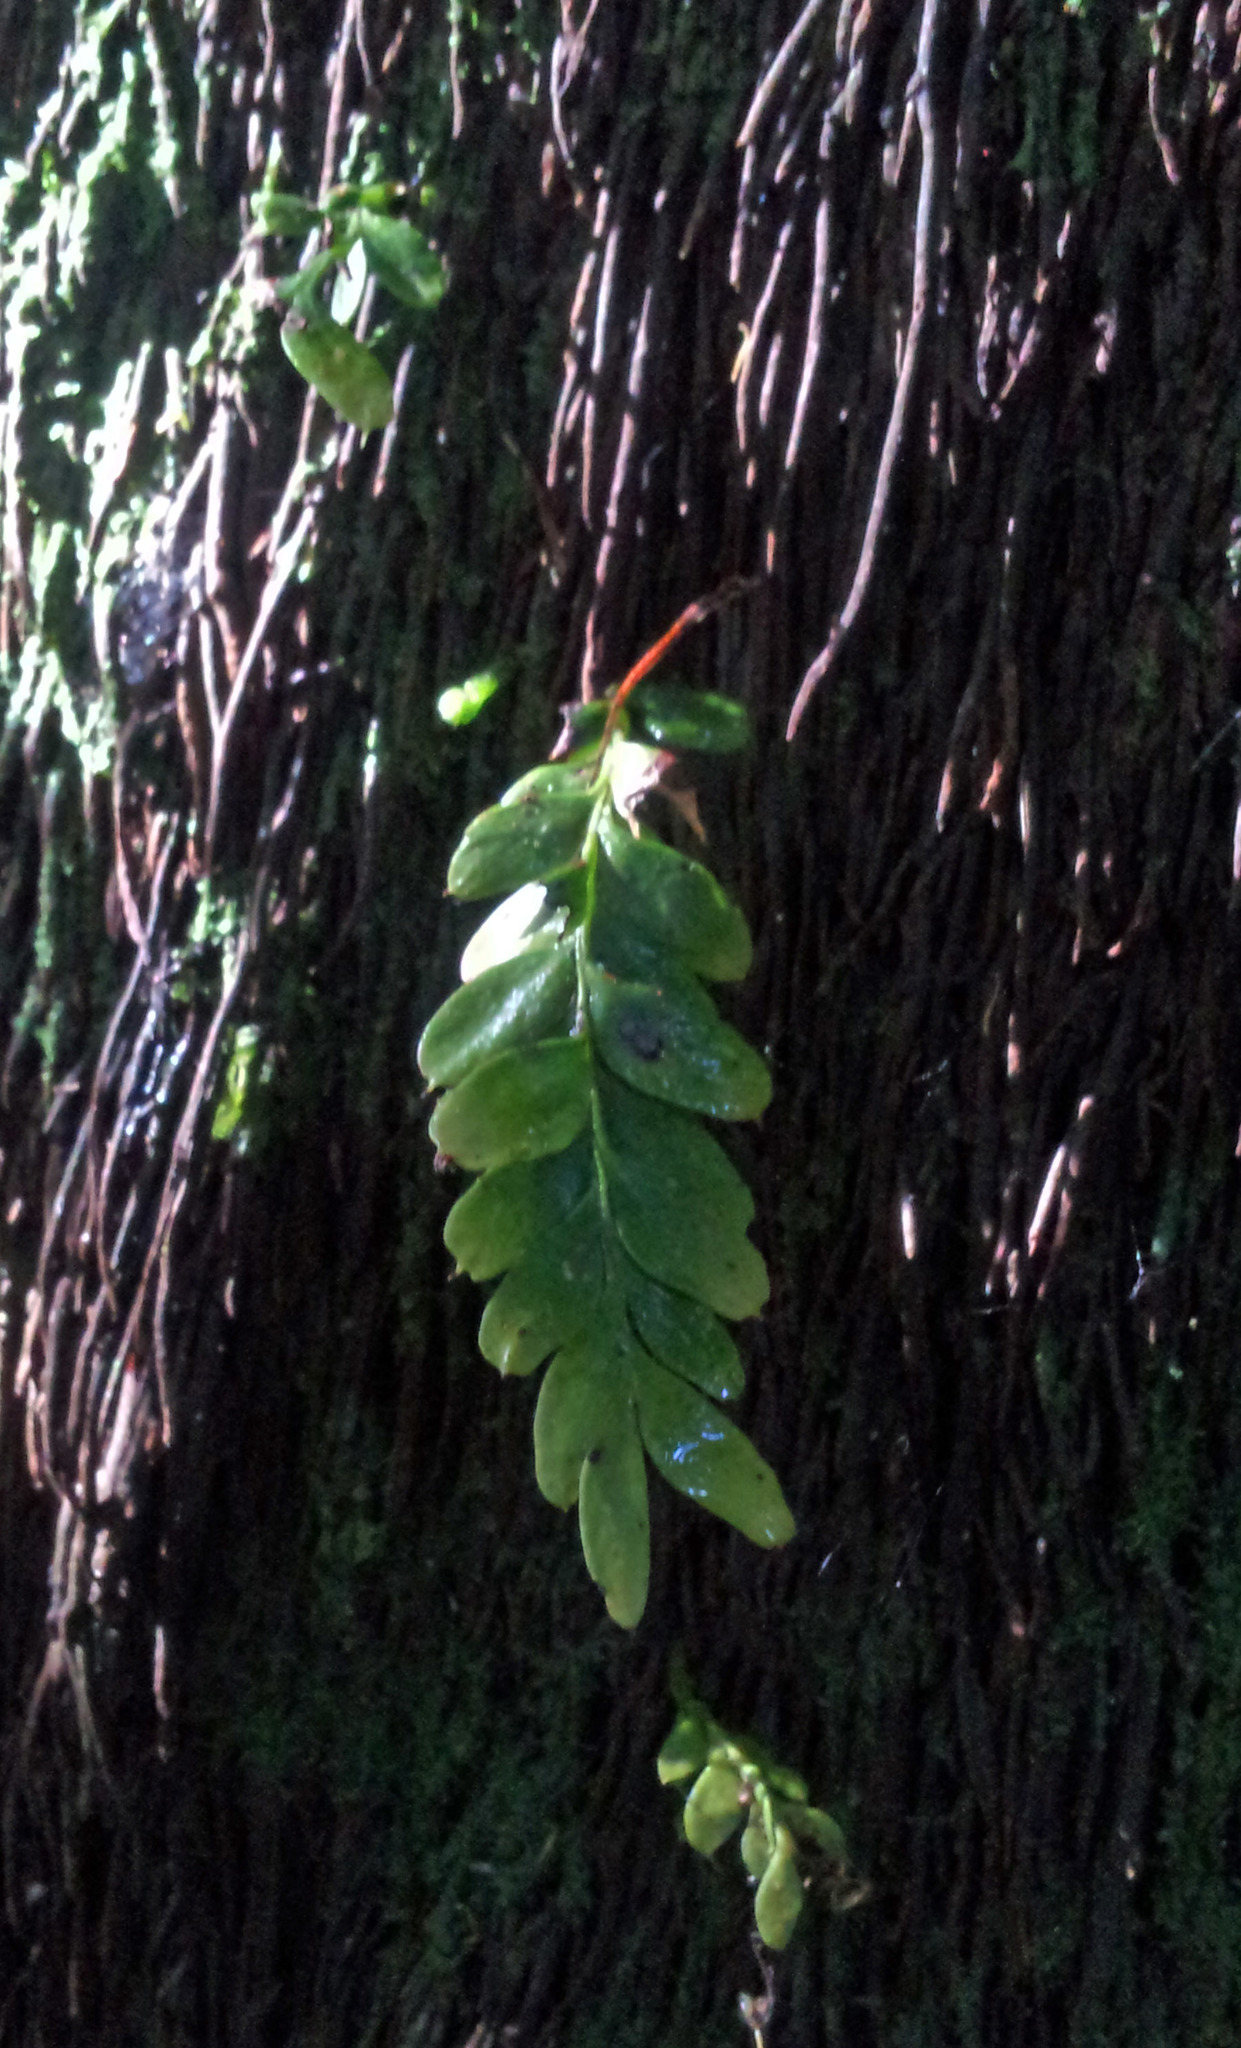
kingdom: Plantae
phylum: Tracheophyta
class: Polypodiopsida
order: Psilotales
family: Psilotaceae
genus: Tmesipteris
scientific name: Tmesipteris lanceolata
